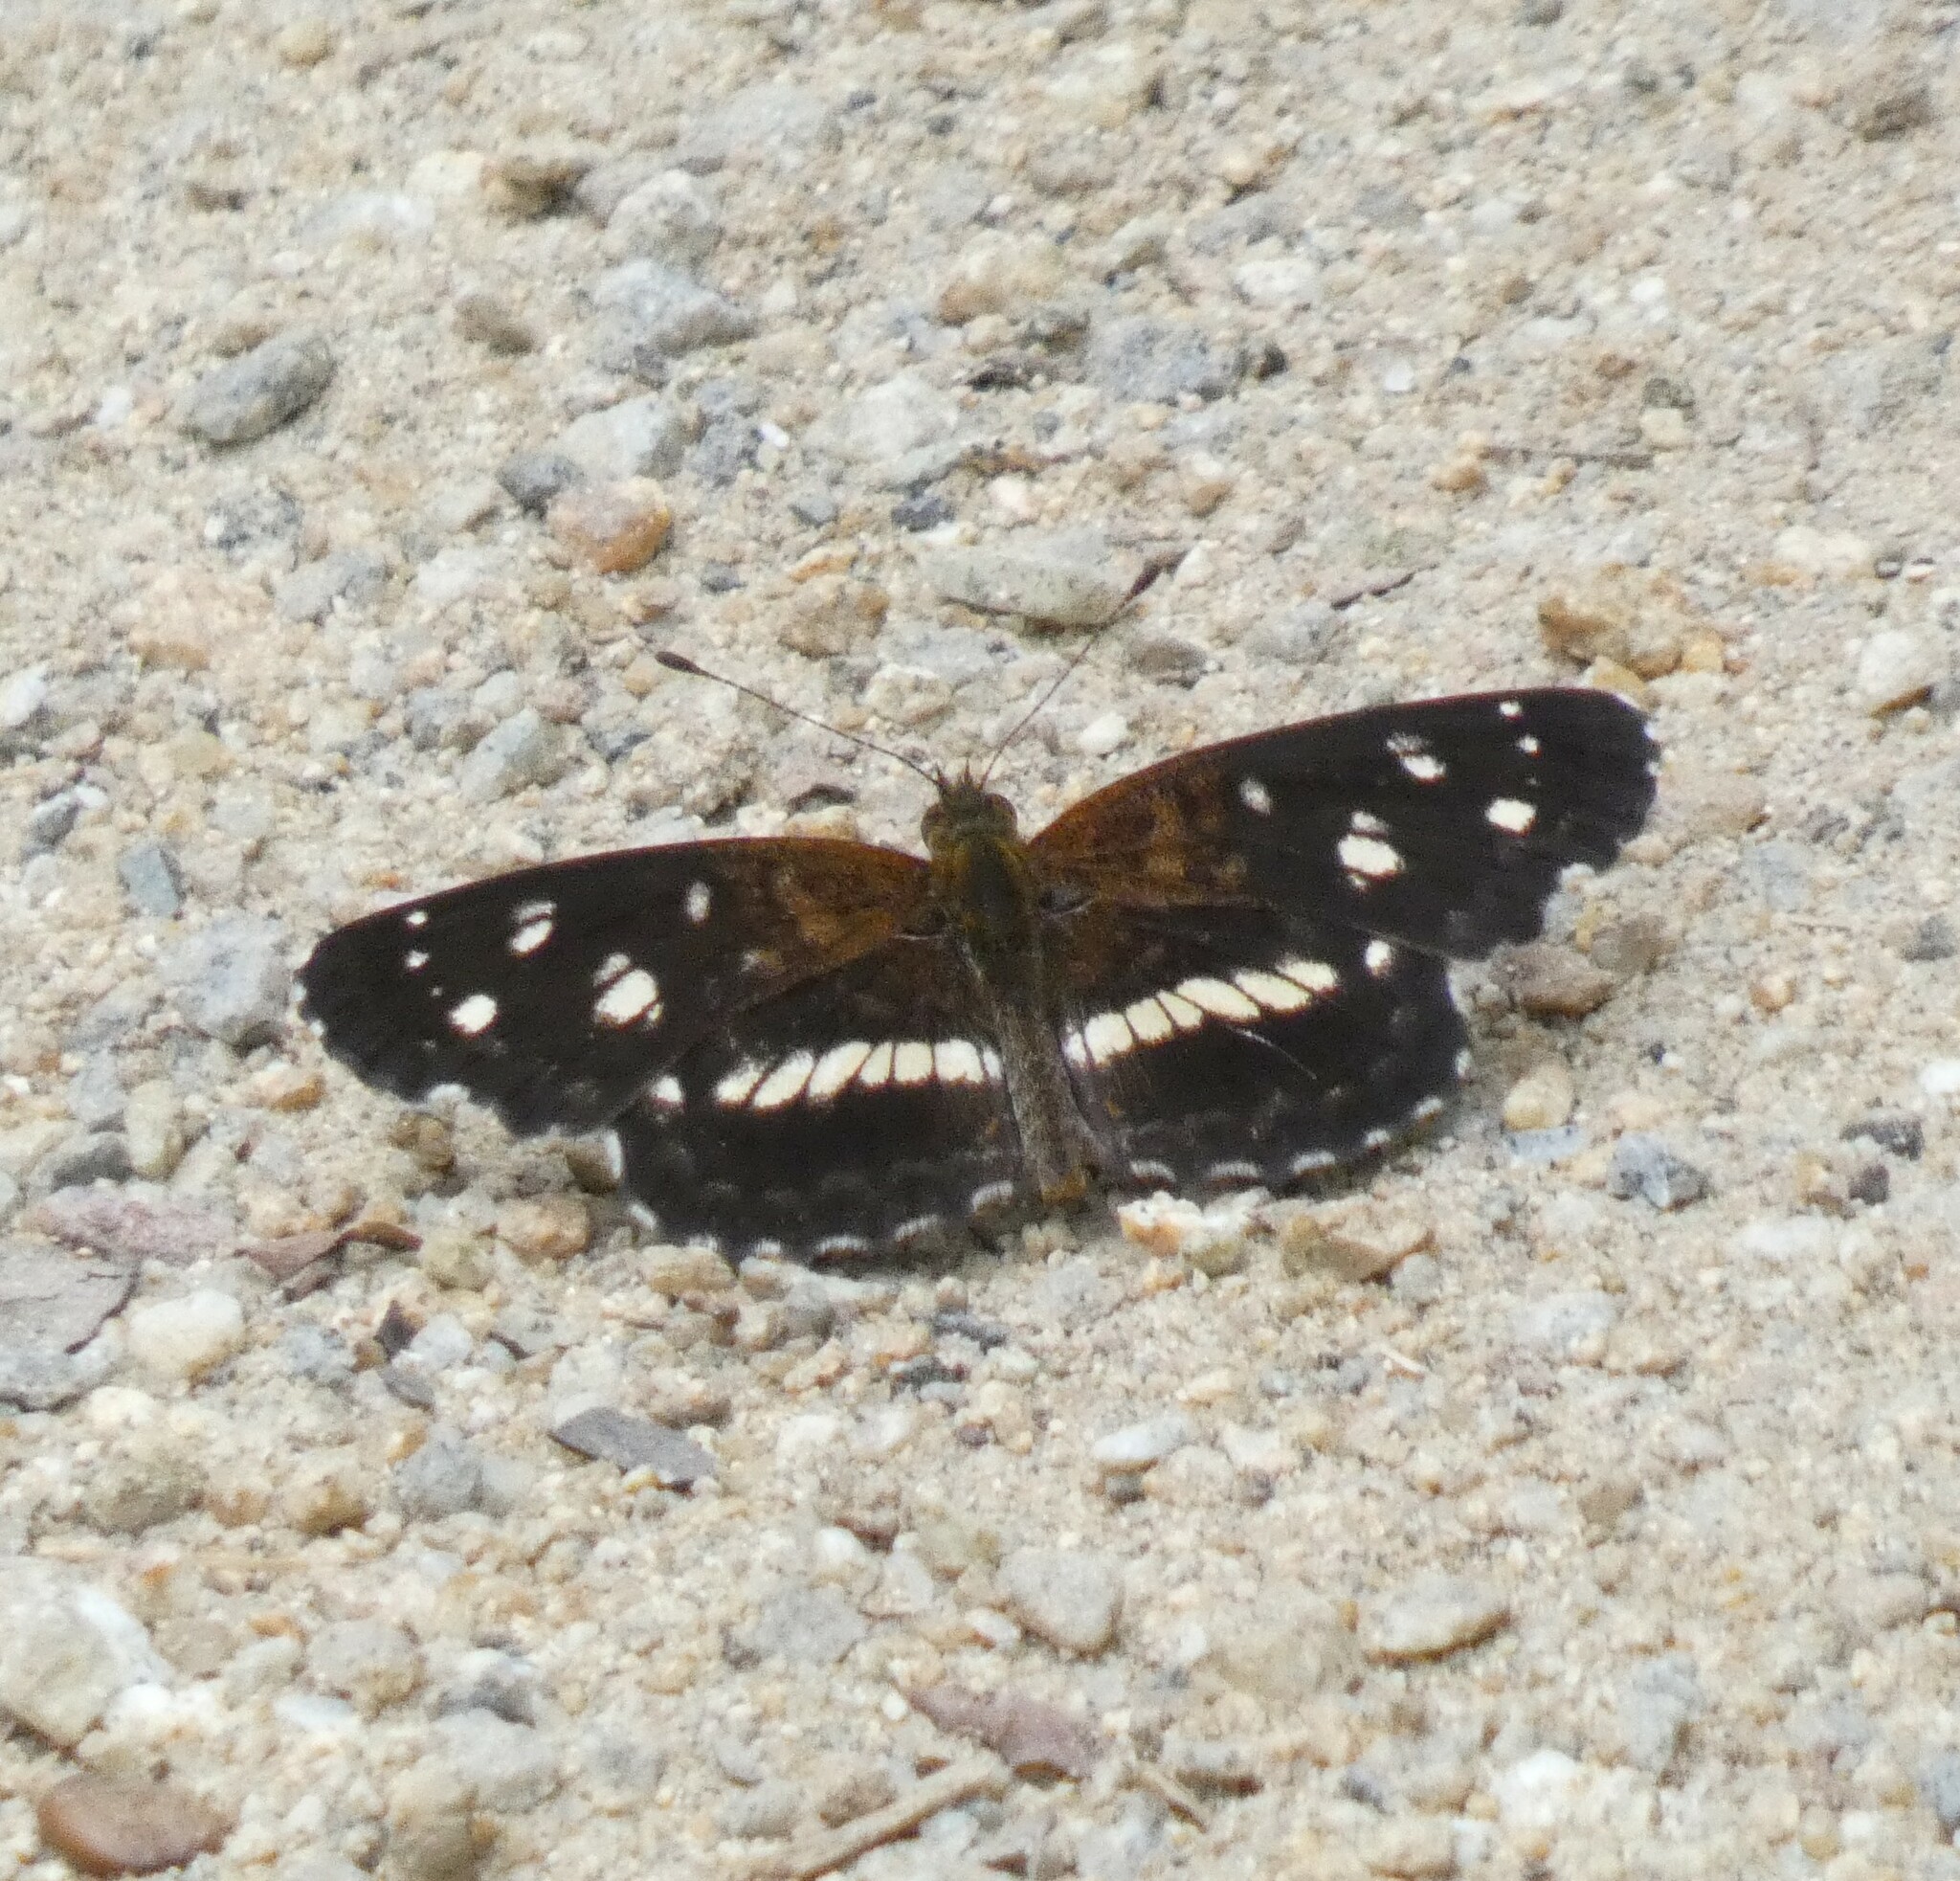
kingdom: Animalia
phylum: Arthropoda
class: Insecta
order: Lepidoptera
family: Nymphalidae
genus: Ortilia
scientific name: Ortilia ithra
